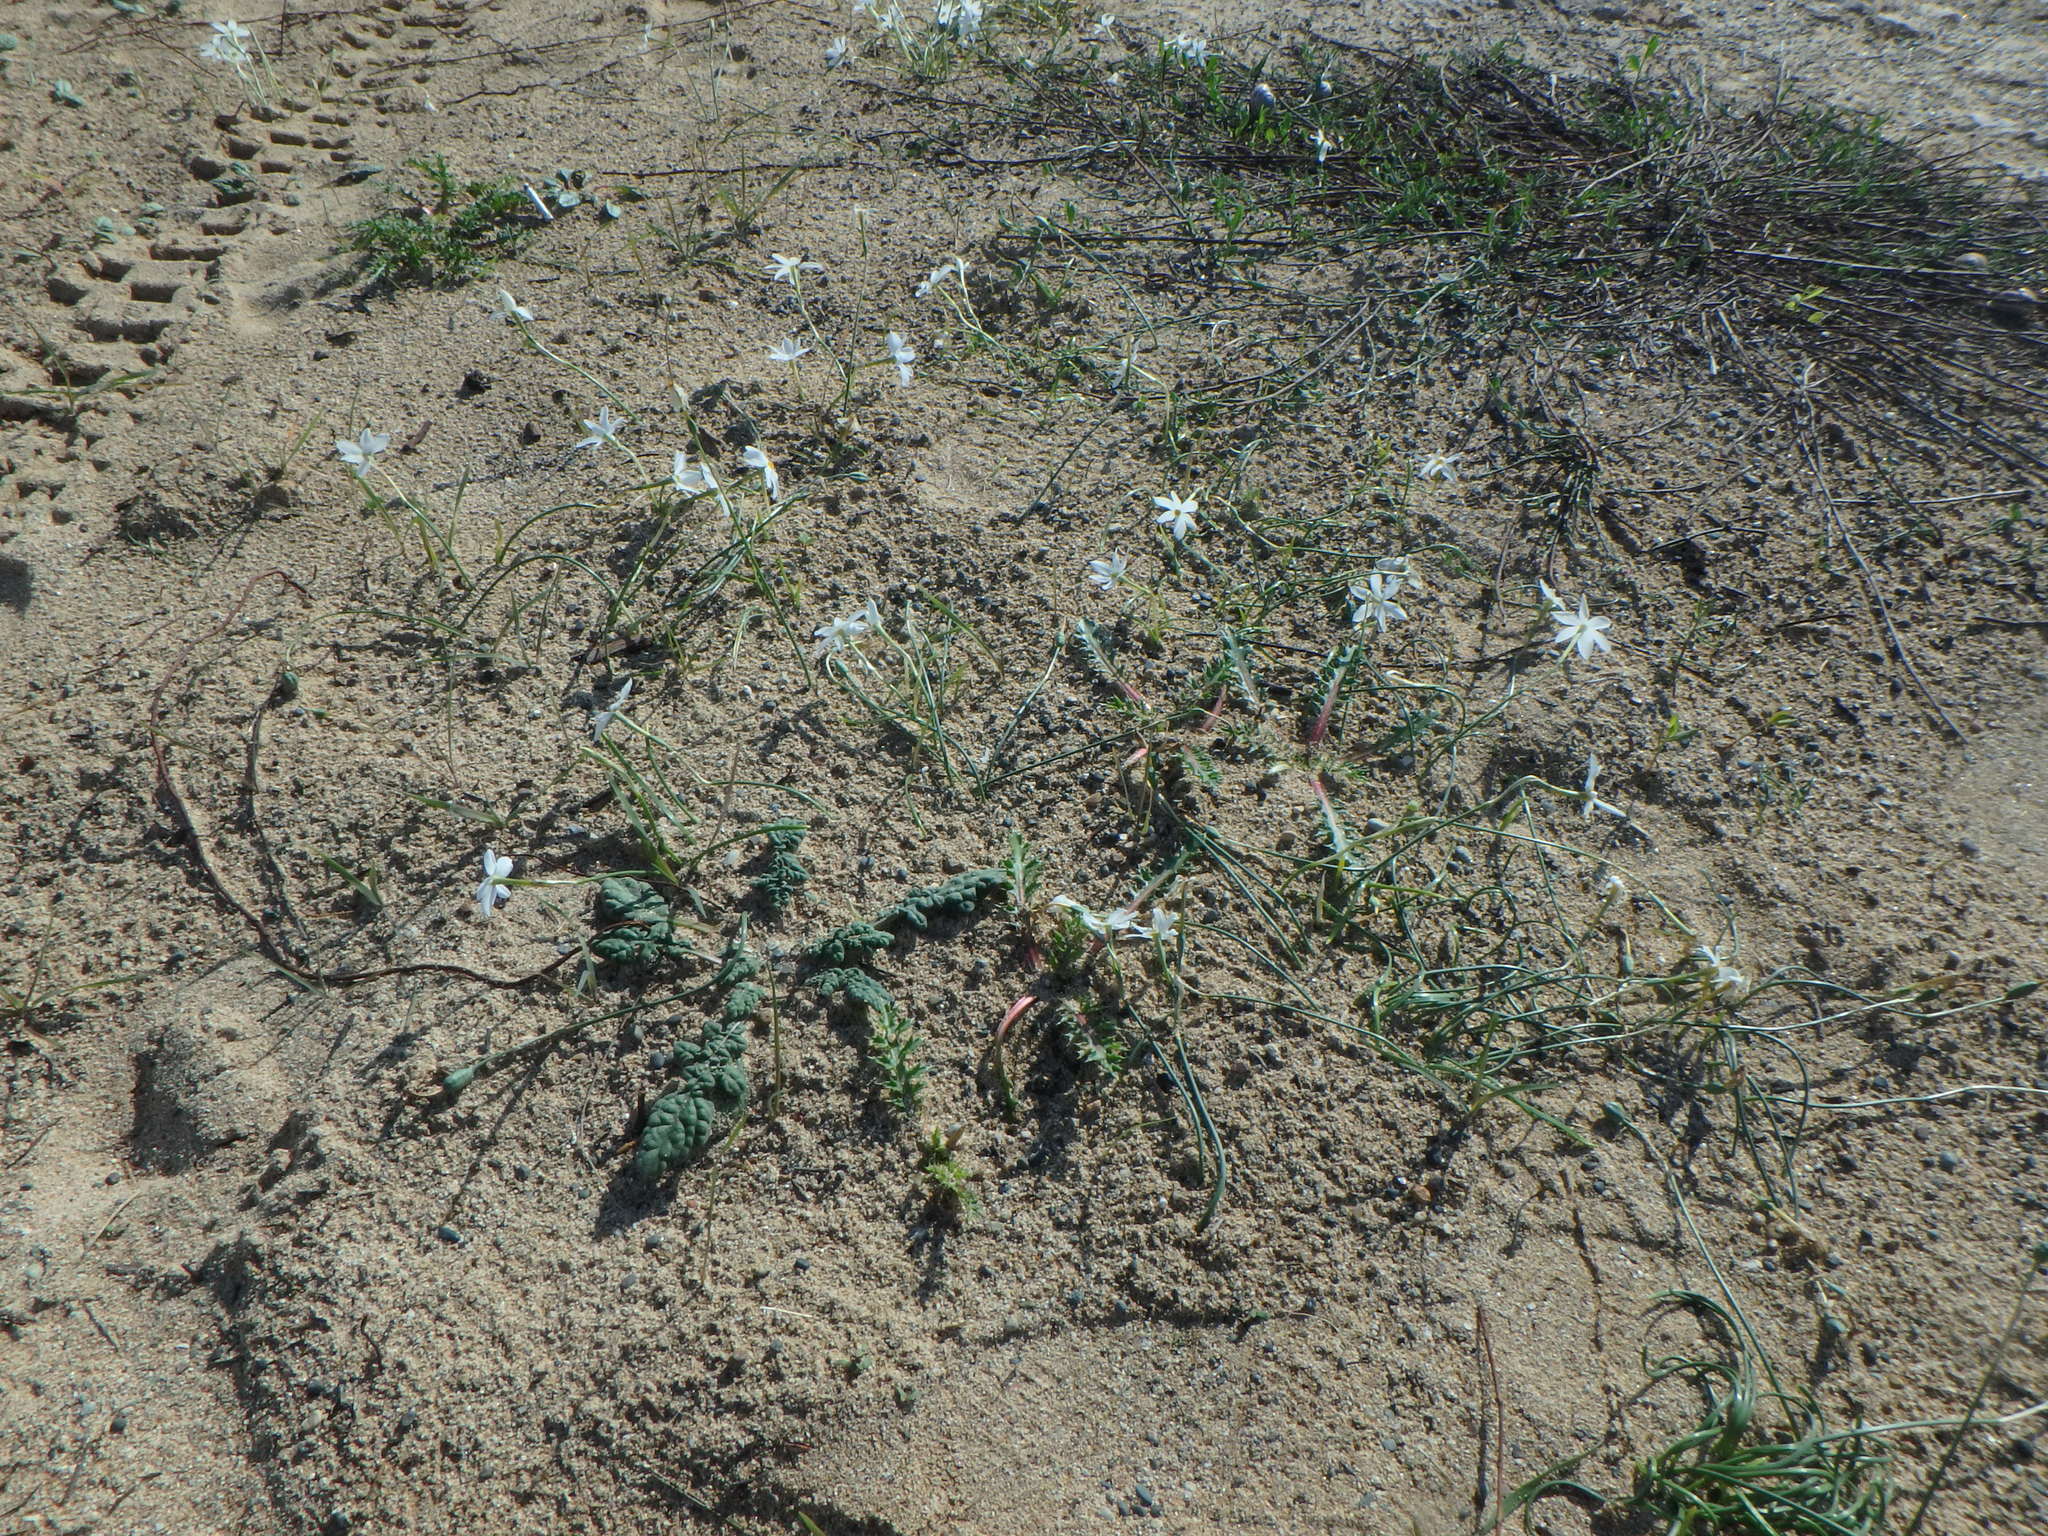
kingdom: Plantae
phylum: Tracheophyta
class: Liliopsida
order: Asparagales
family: Amaryllidaceae
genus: Narcissus
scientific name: Narcissus deficiens
